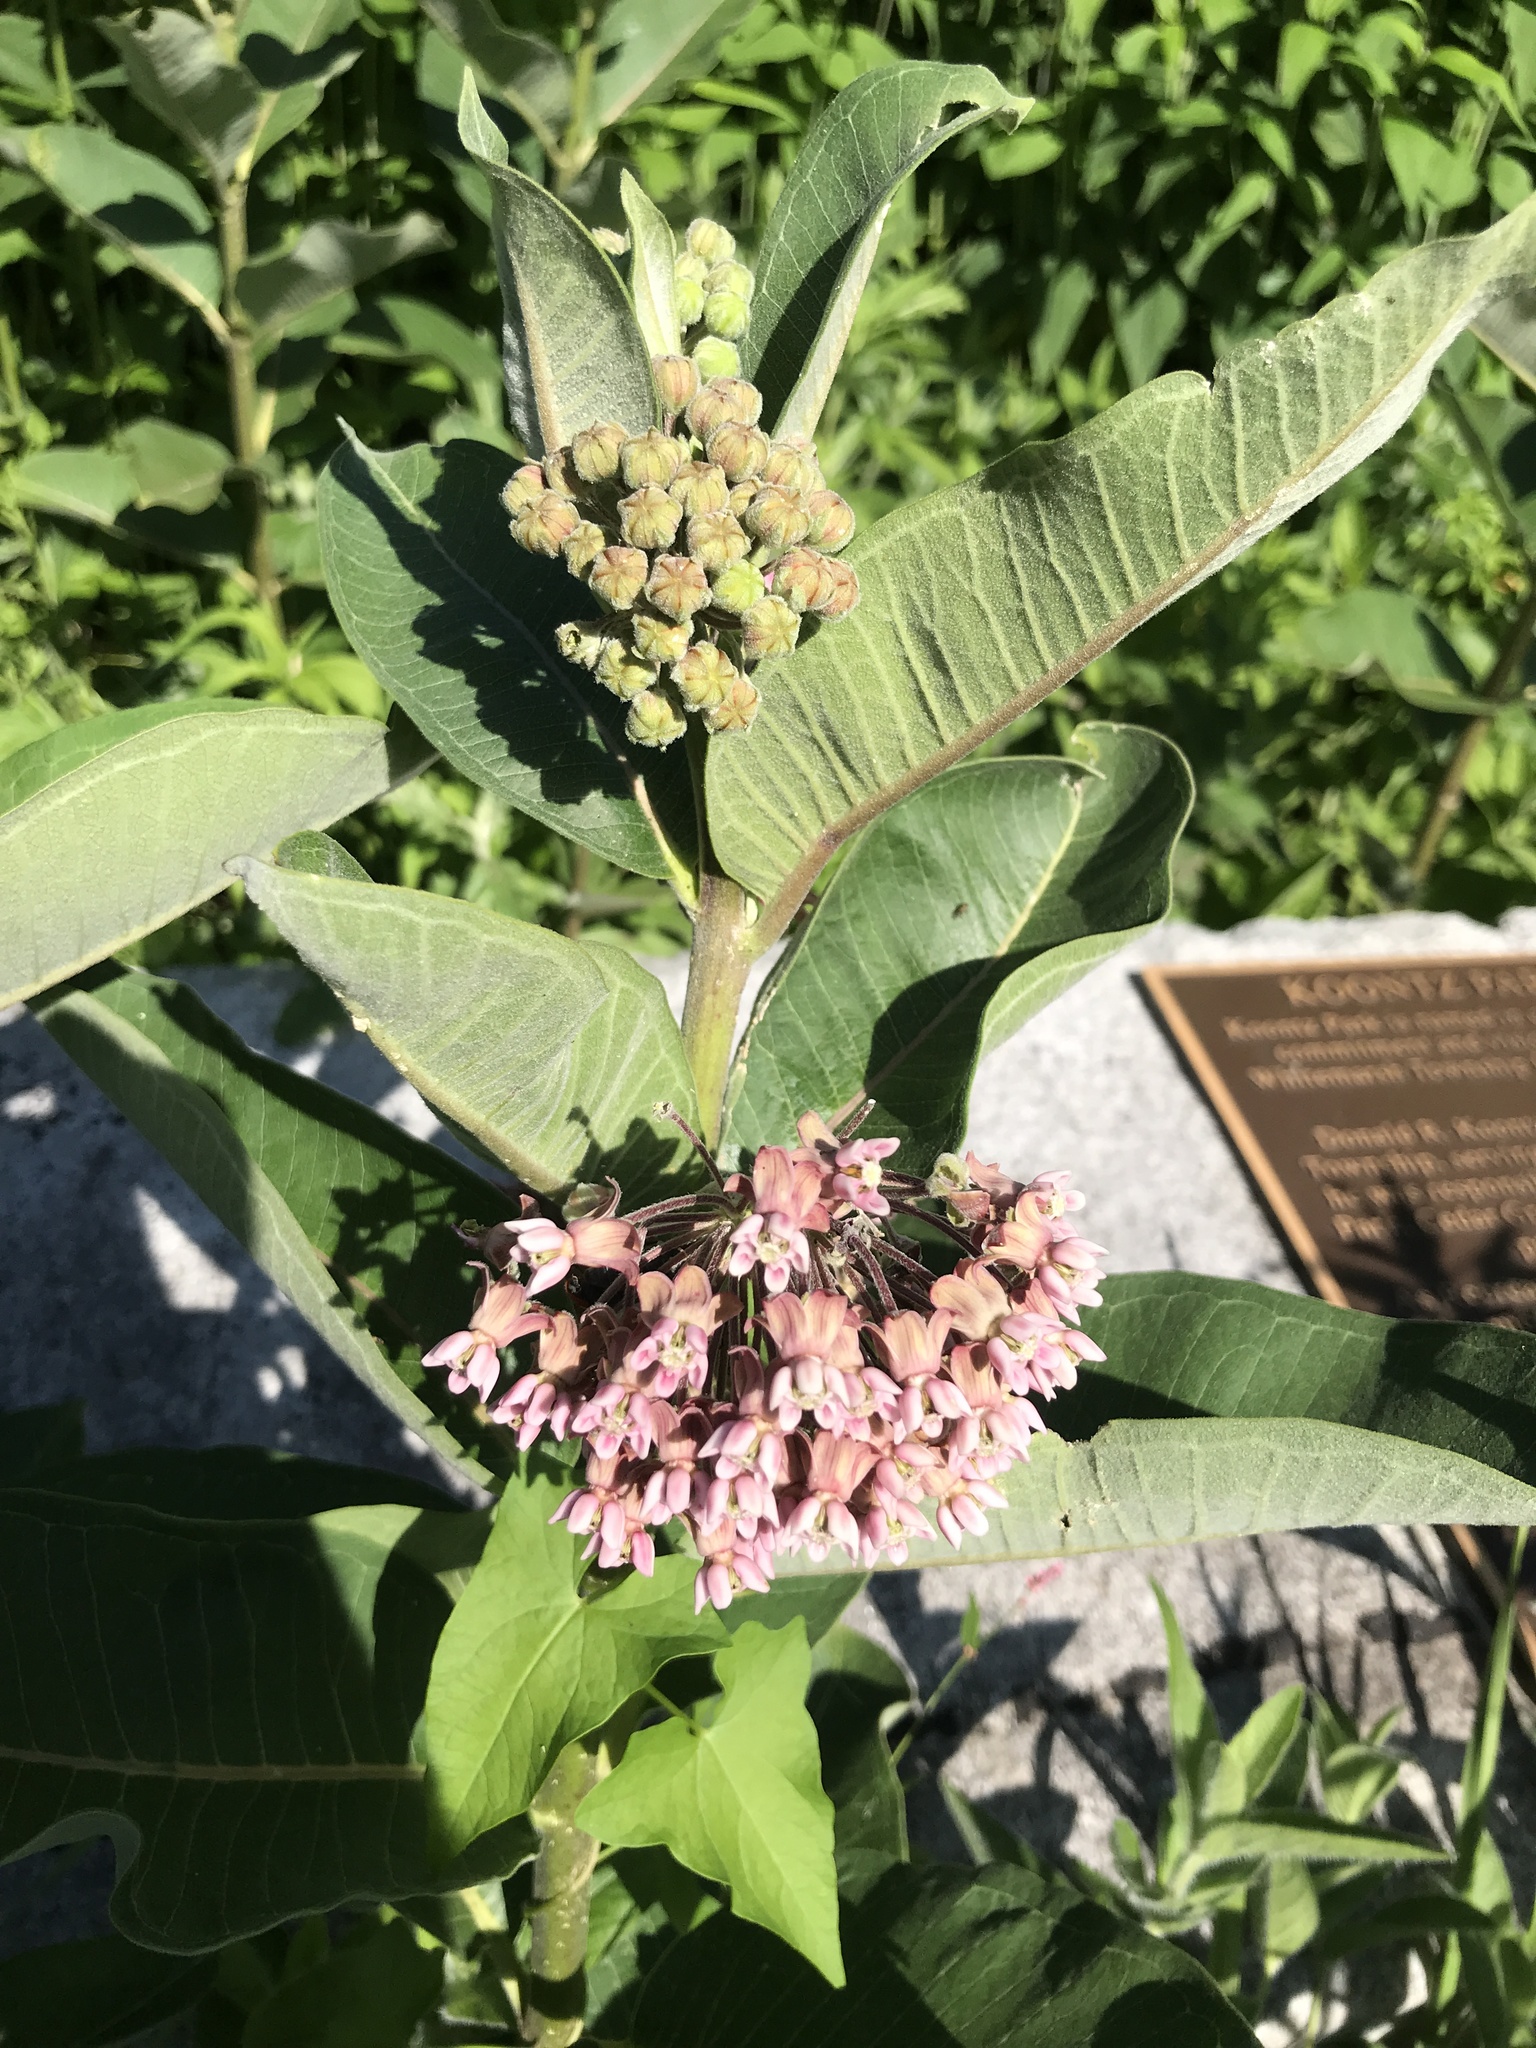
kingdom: Plantae
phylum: Tracheophyta
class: Magnoliopsida
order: Gentianales
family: Apocynaceae
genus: Asclepias
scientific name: Asclepias syriaca
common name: Common milkweed
